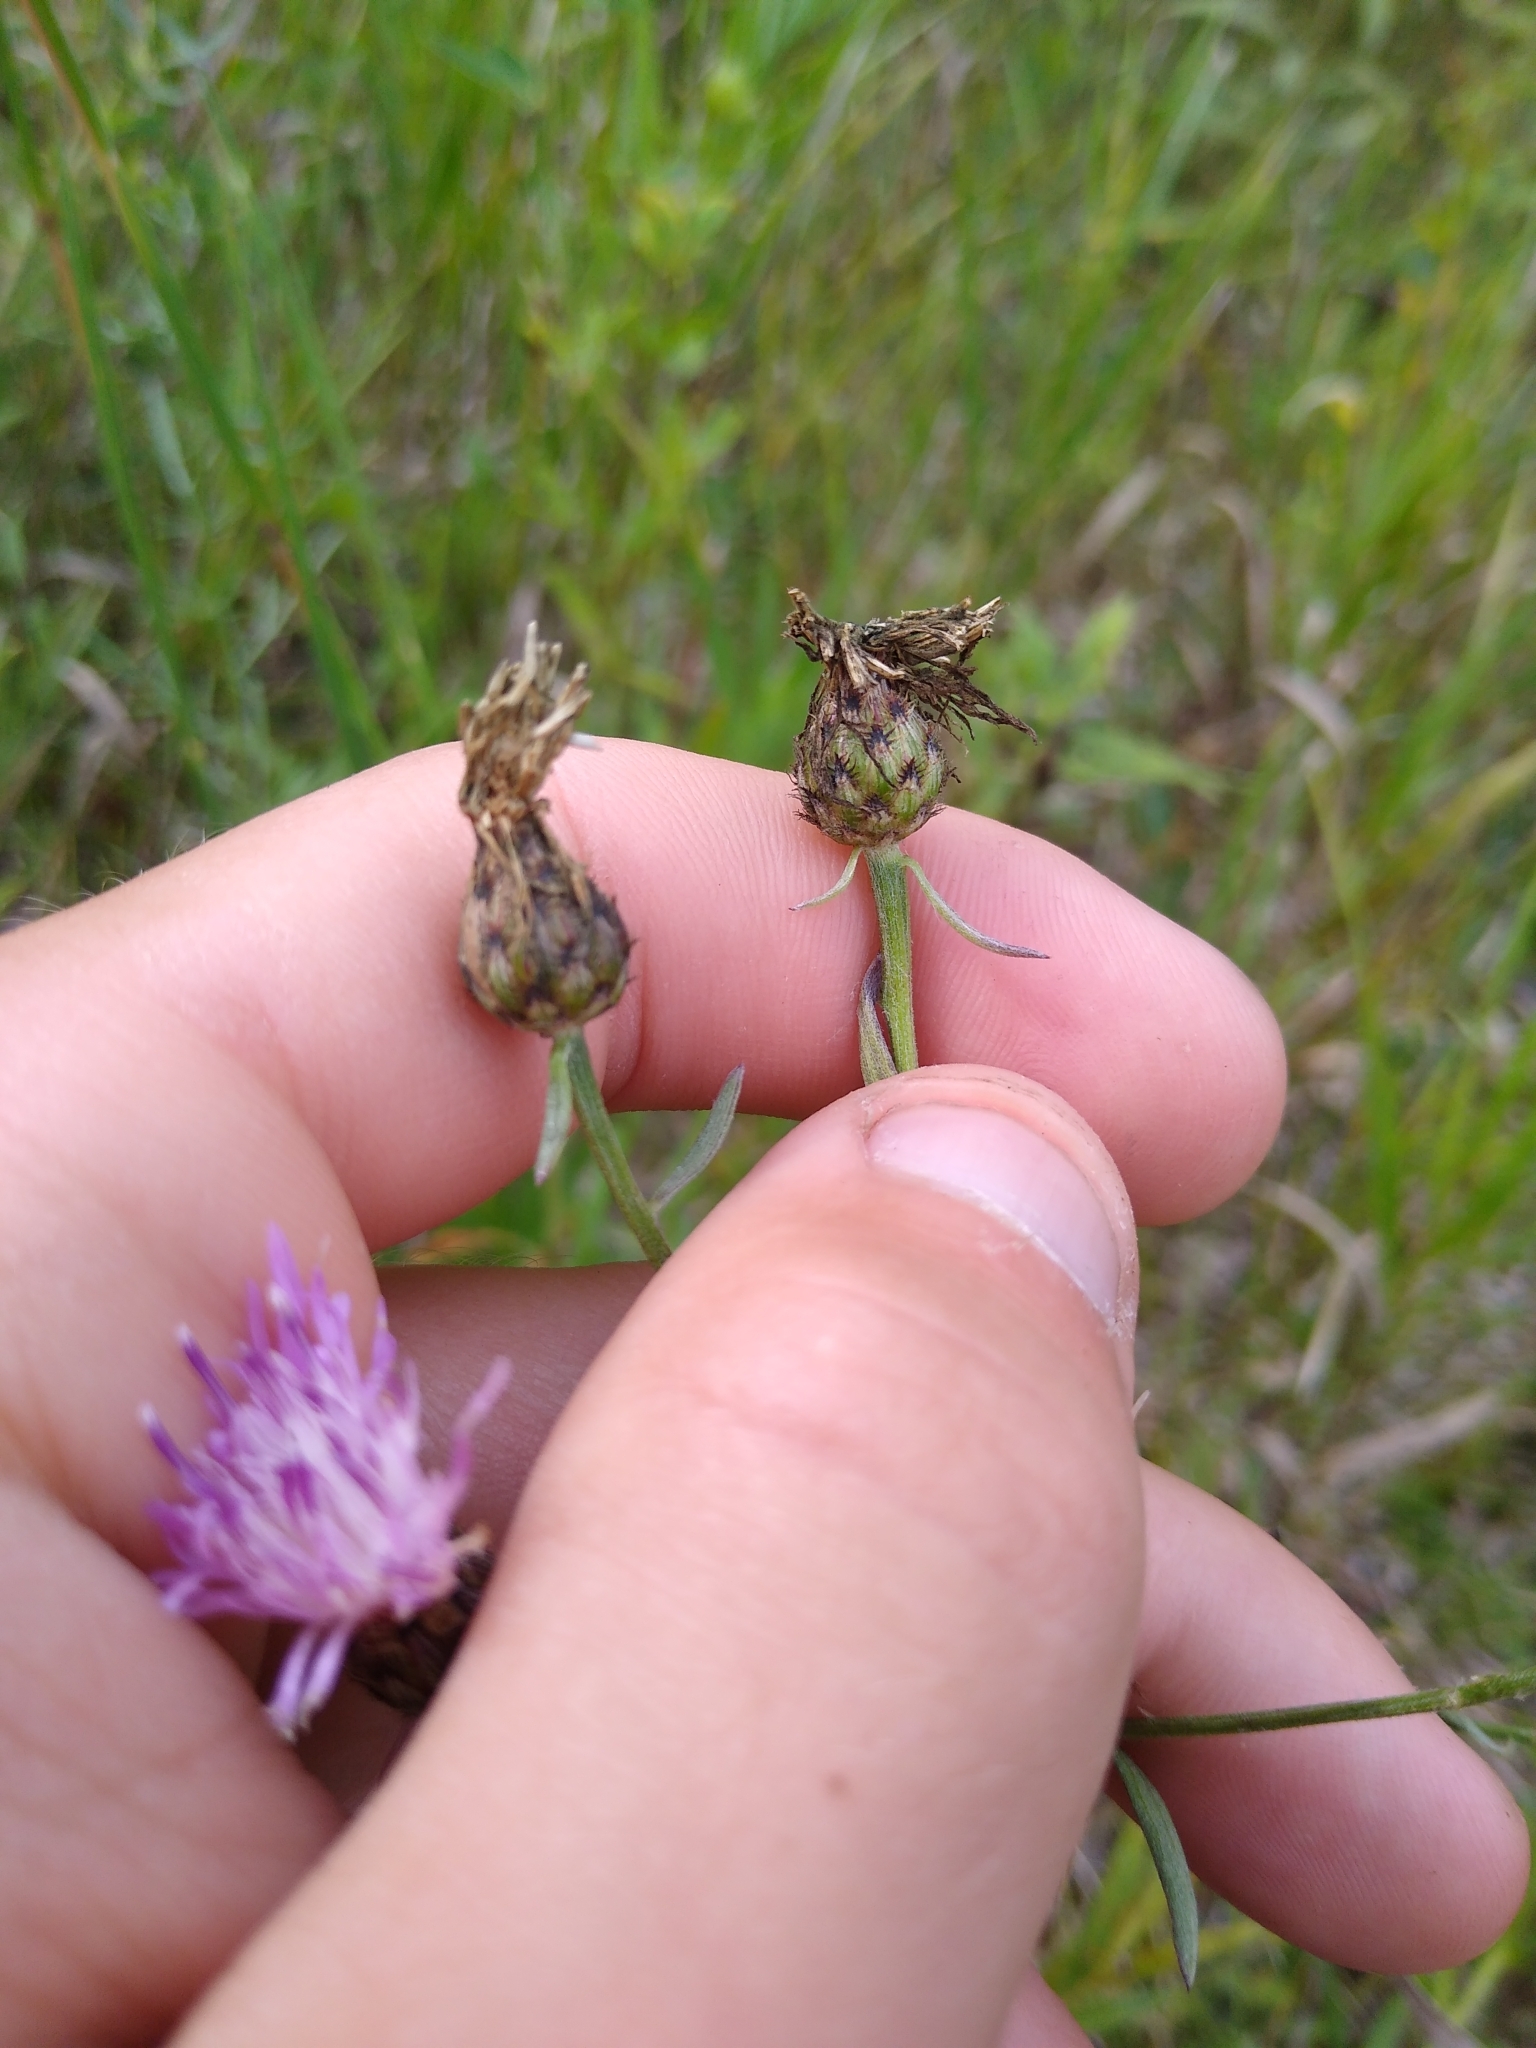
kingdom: Plantae
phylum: Tracheophyta
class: Magnoliopsida
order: Asterales
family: Asteraceae
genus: Centaurea
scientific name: Centaurea stoebe
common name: Spotted knapweed
